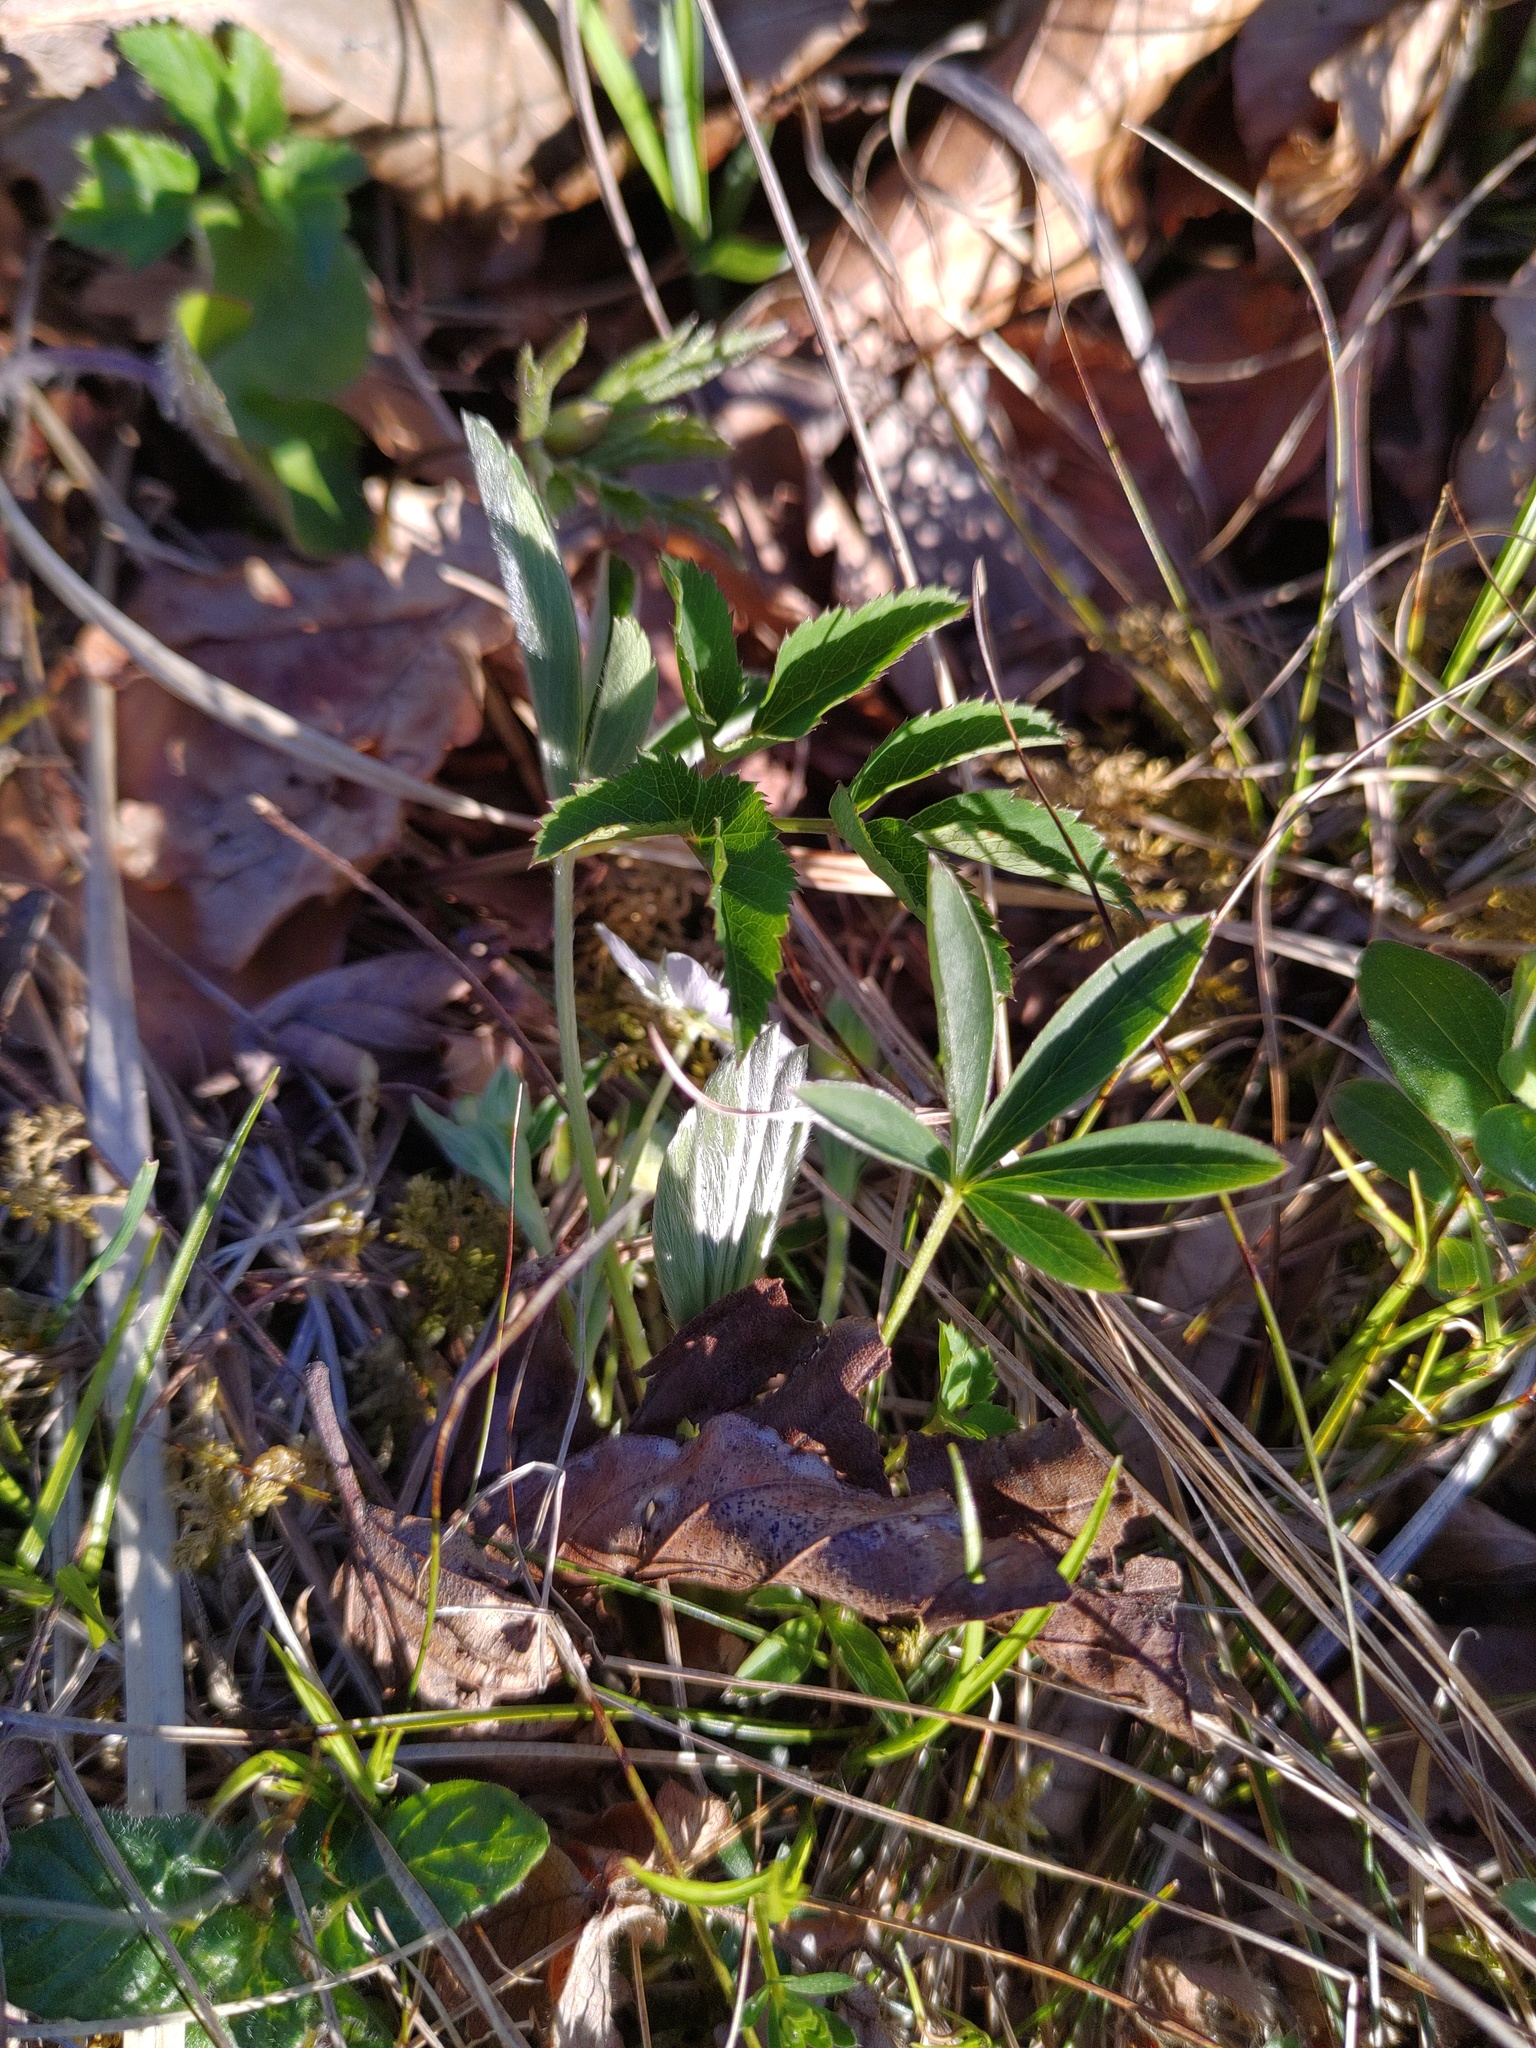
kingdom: Plantae
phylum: Tracheophyta
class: Magnoliopsida
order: Rosales
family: Rosaceae
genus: Potentilla
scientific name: Potentilla alba
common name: White cinquefoil
